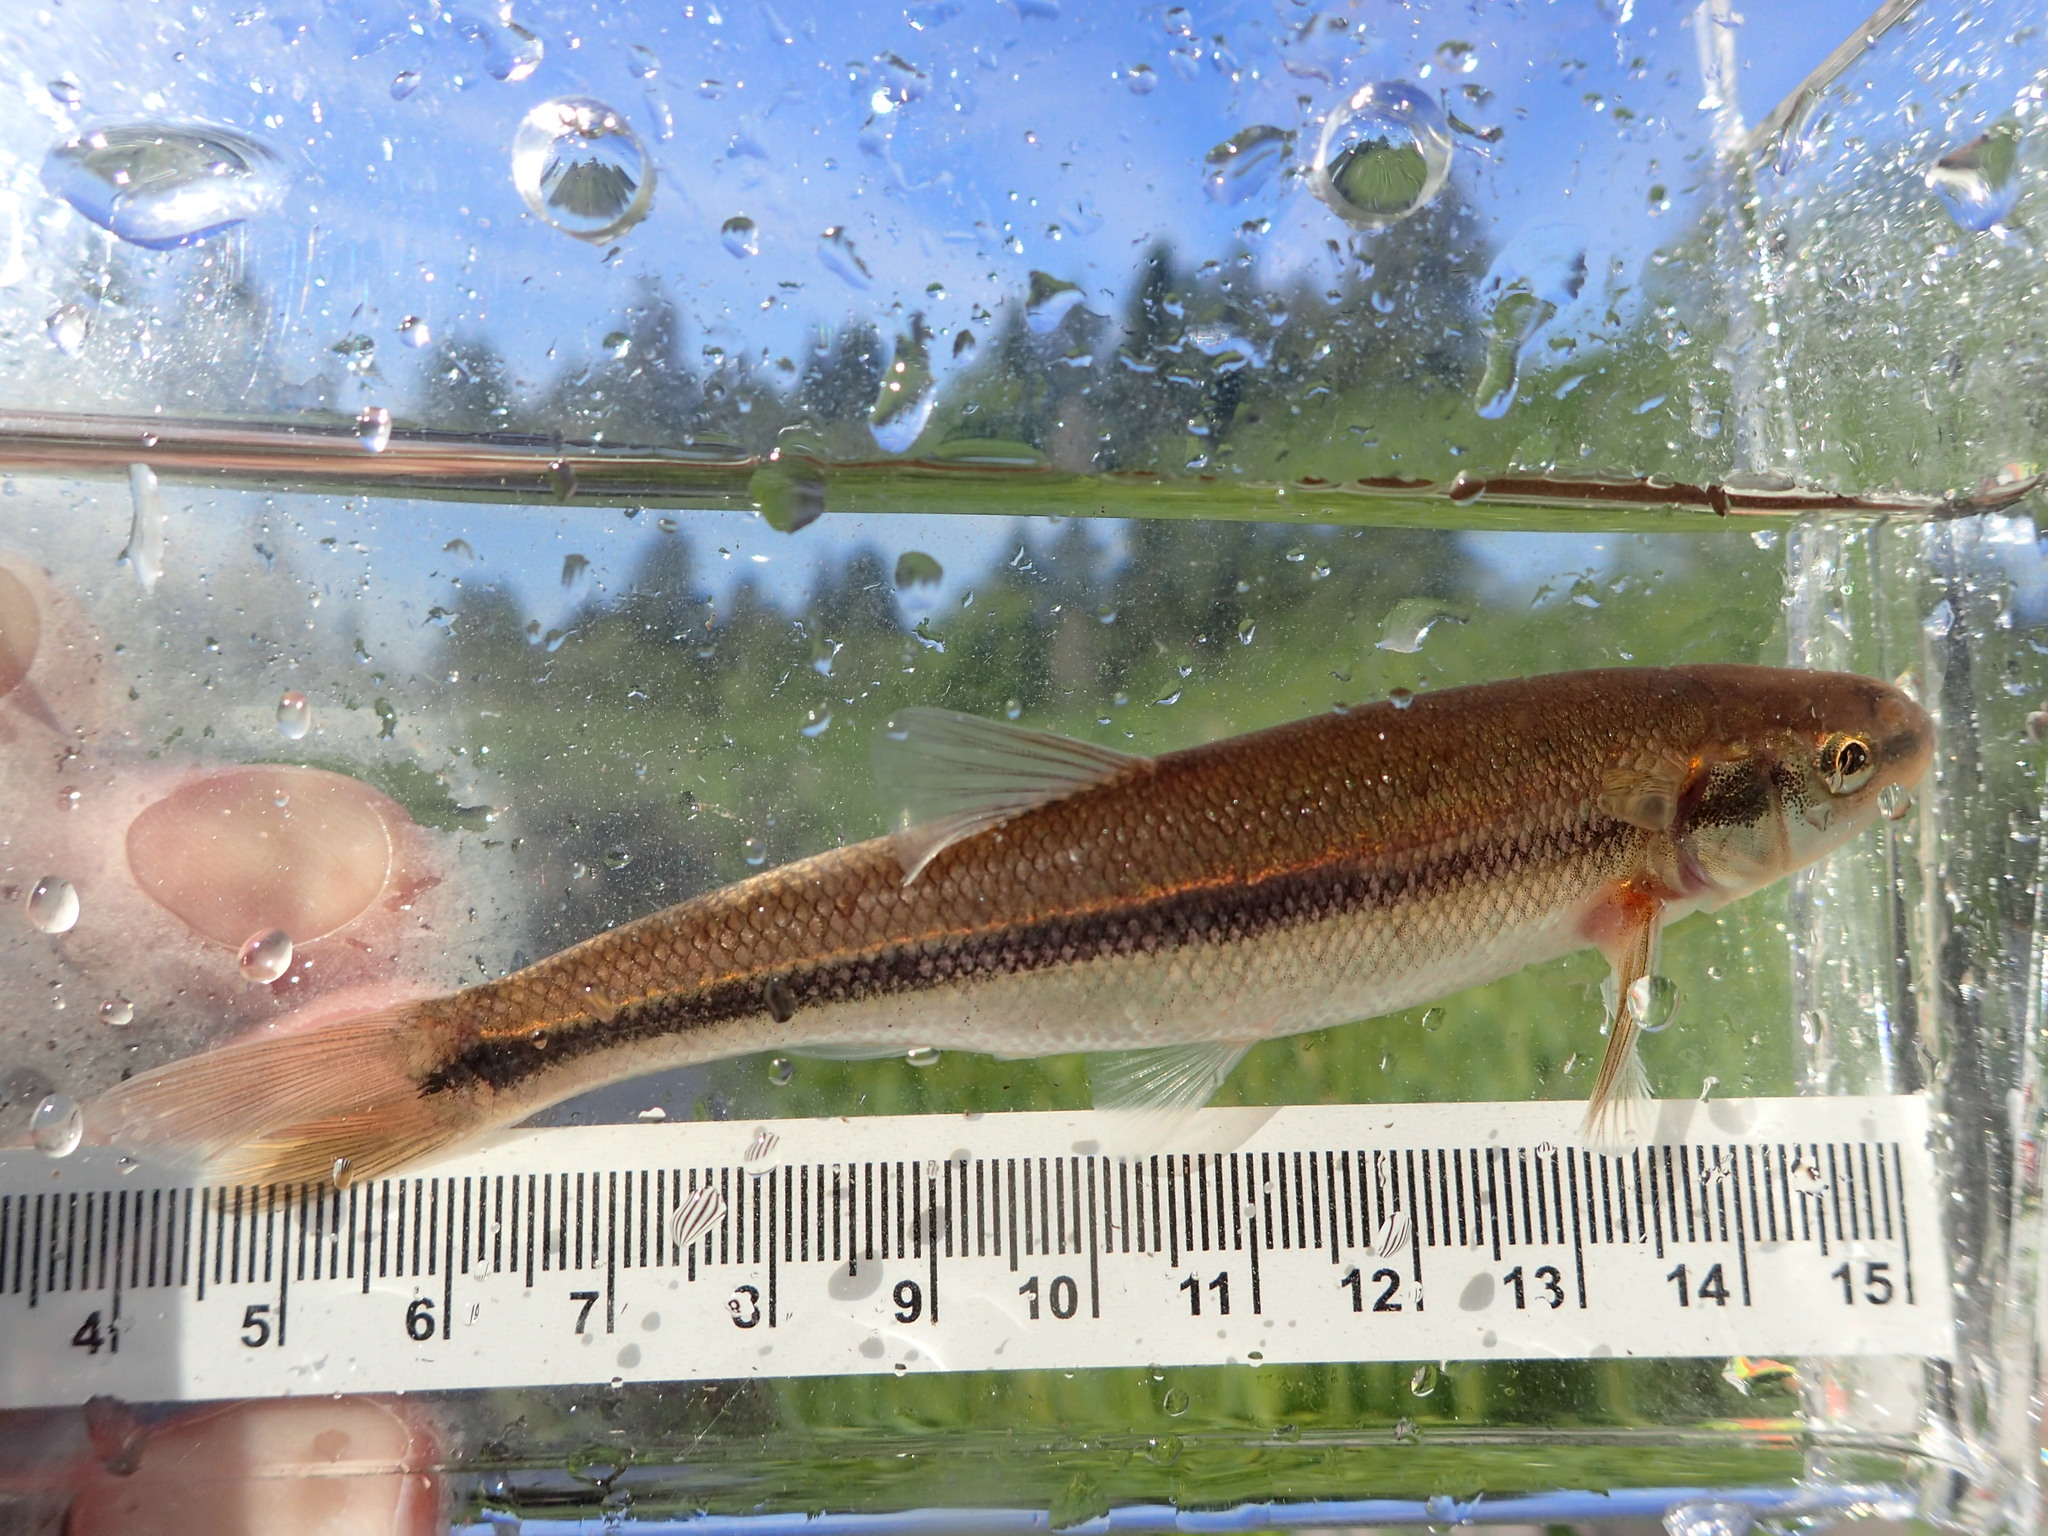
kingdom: Animalia
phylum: Chordata
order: Cypriniformes
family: Cyprinidae
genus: Couesius
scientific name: Couesius plumbeus
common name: Lake chub
